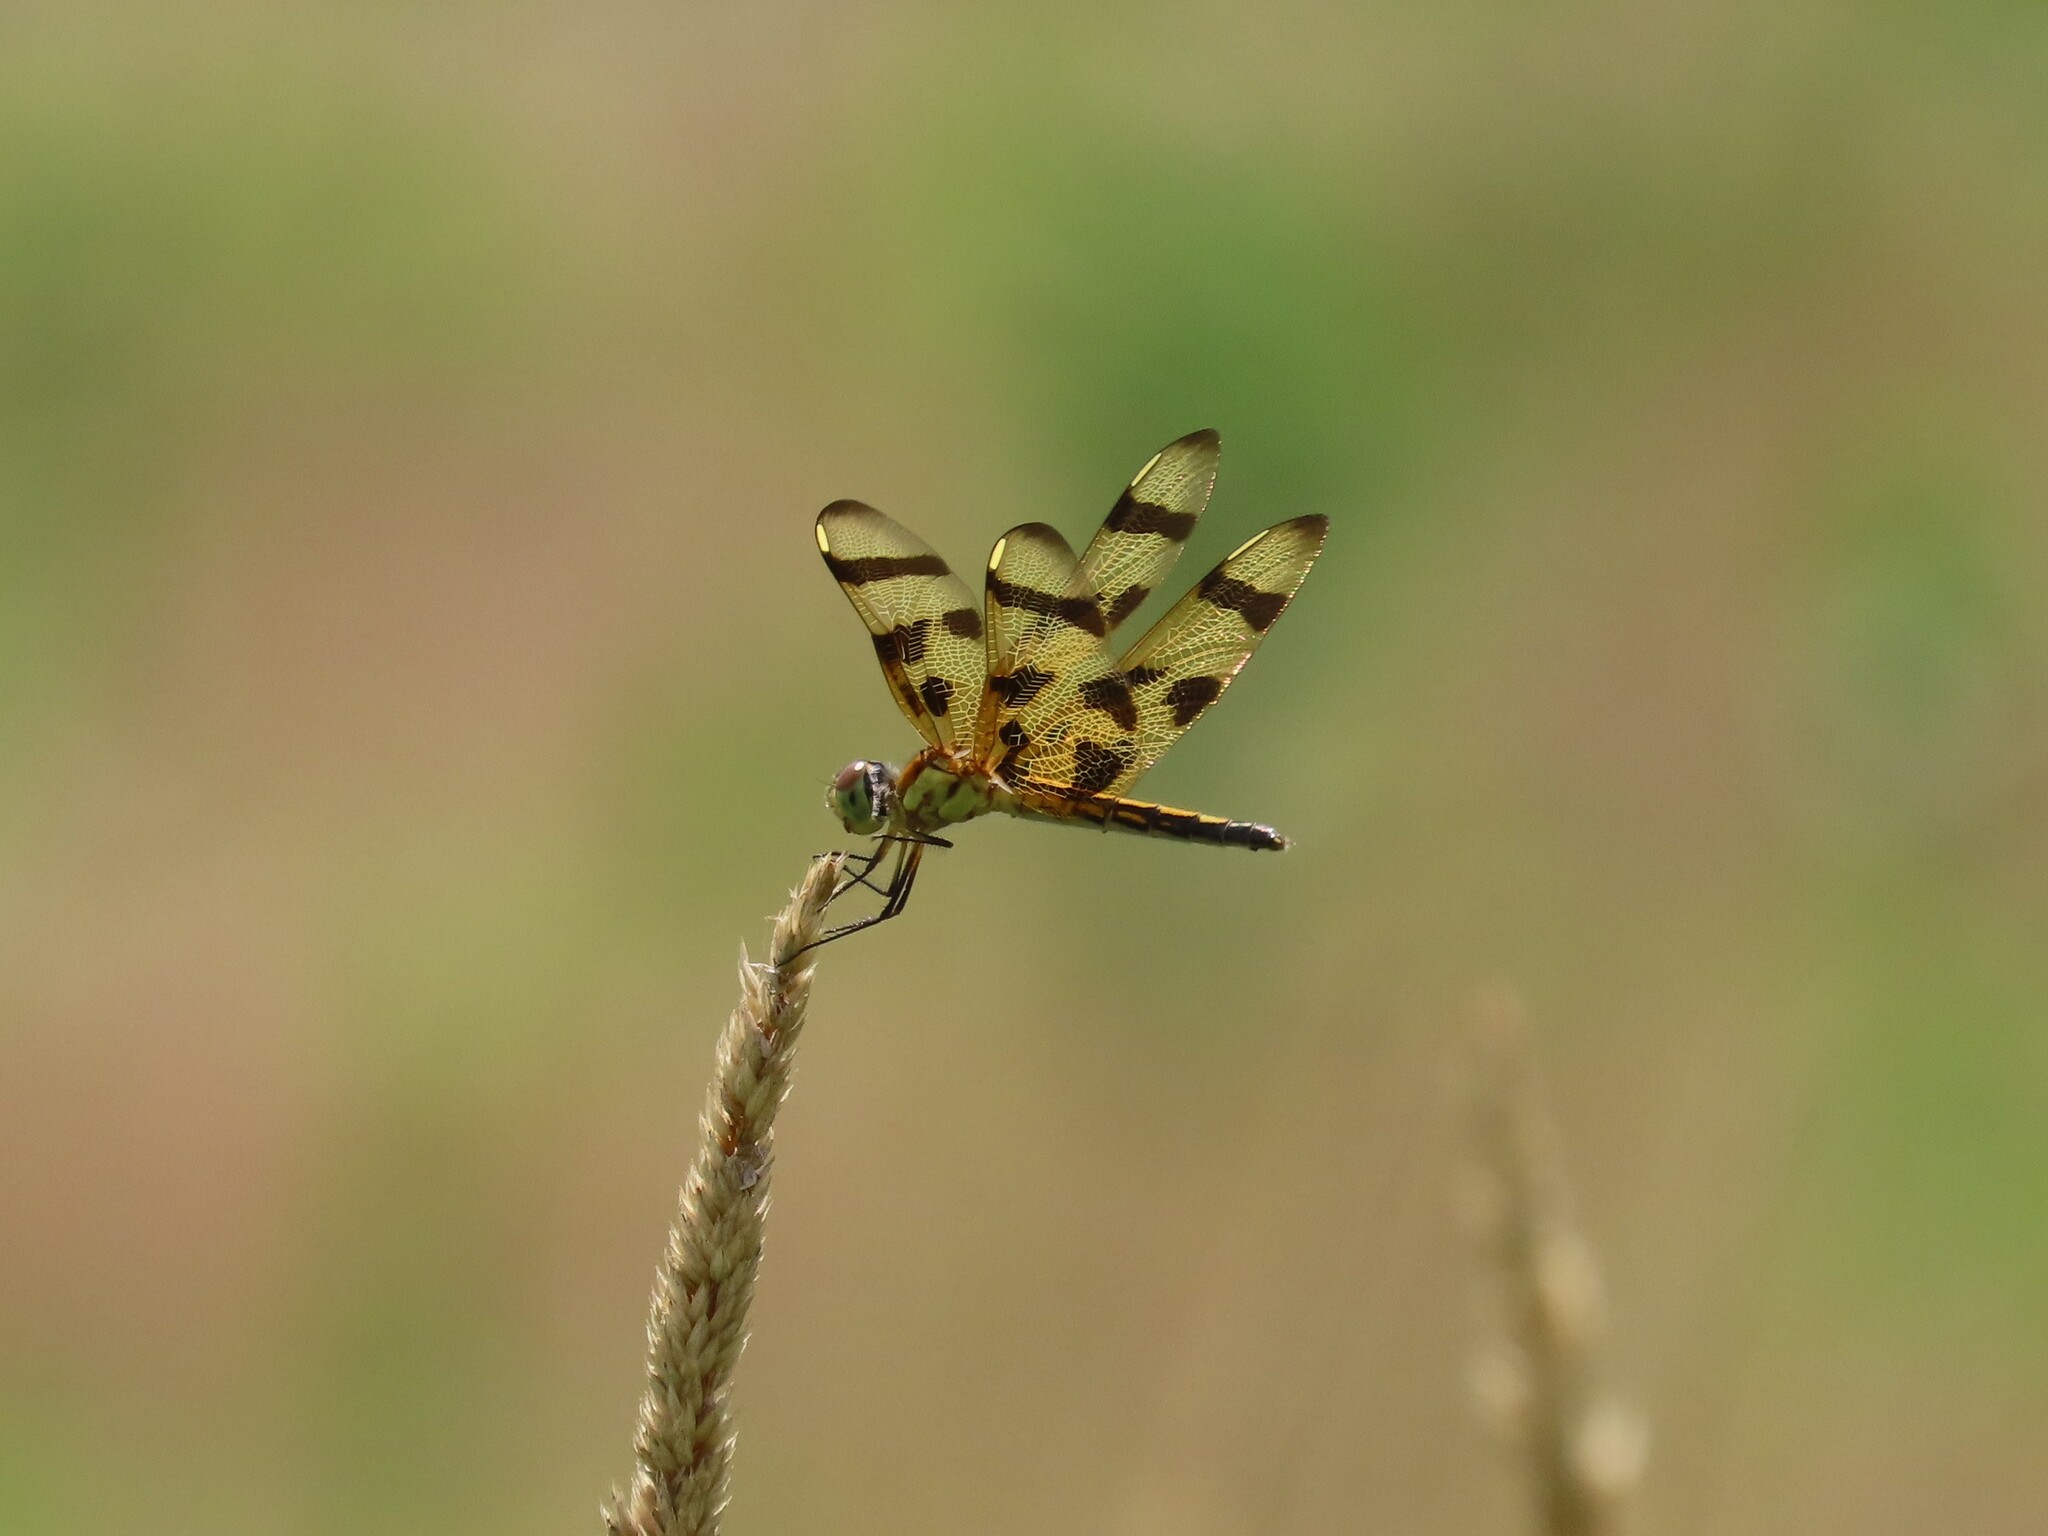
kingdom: Animalia
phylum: Arthropoda
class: Insecta
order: Odonata
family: Libellulidae
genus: Celithemis
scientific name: Celithemis eponina
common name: Halloween pennant
